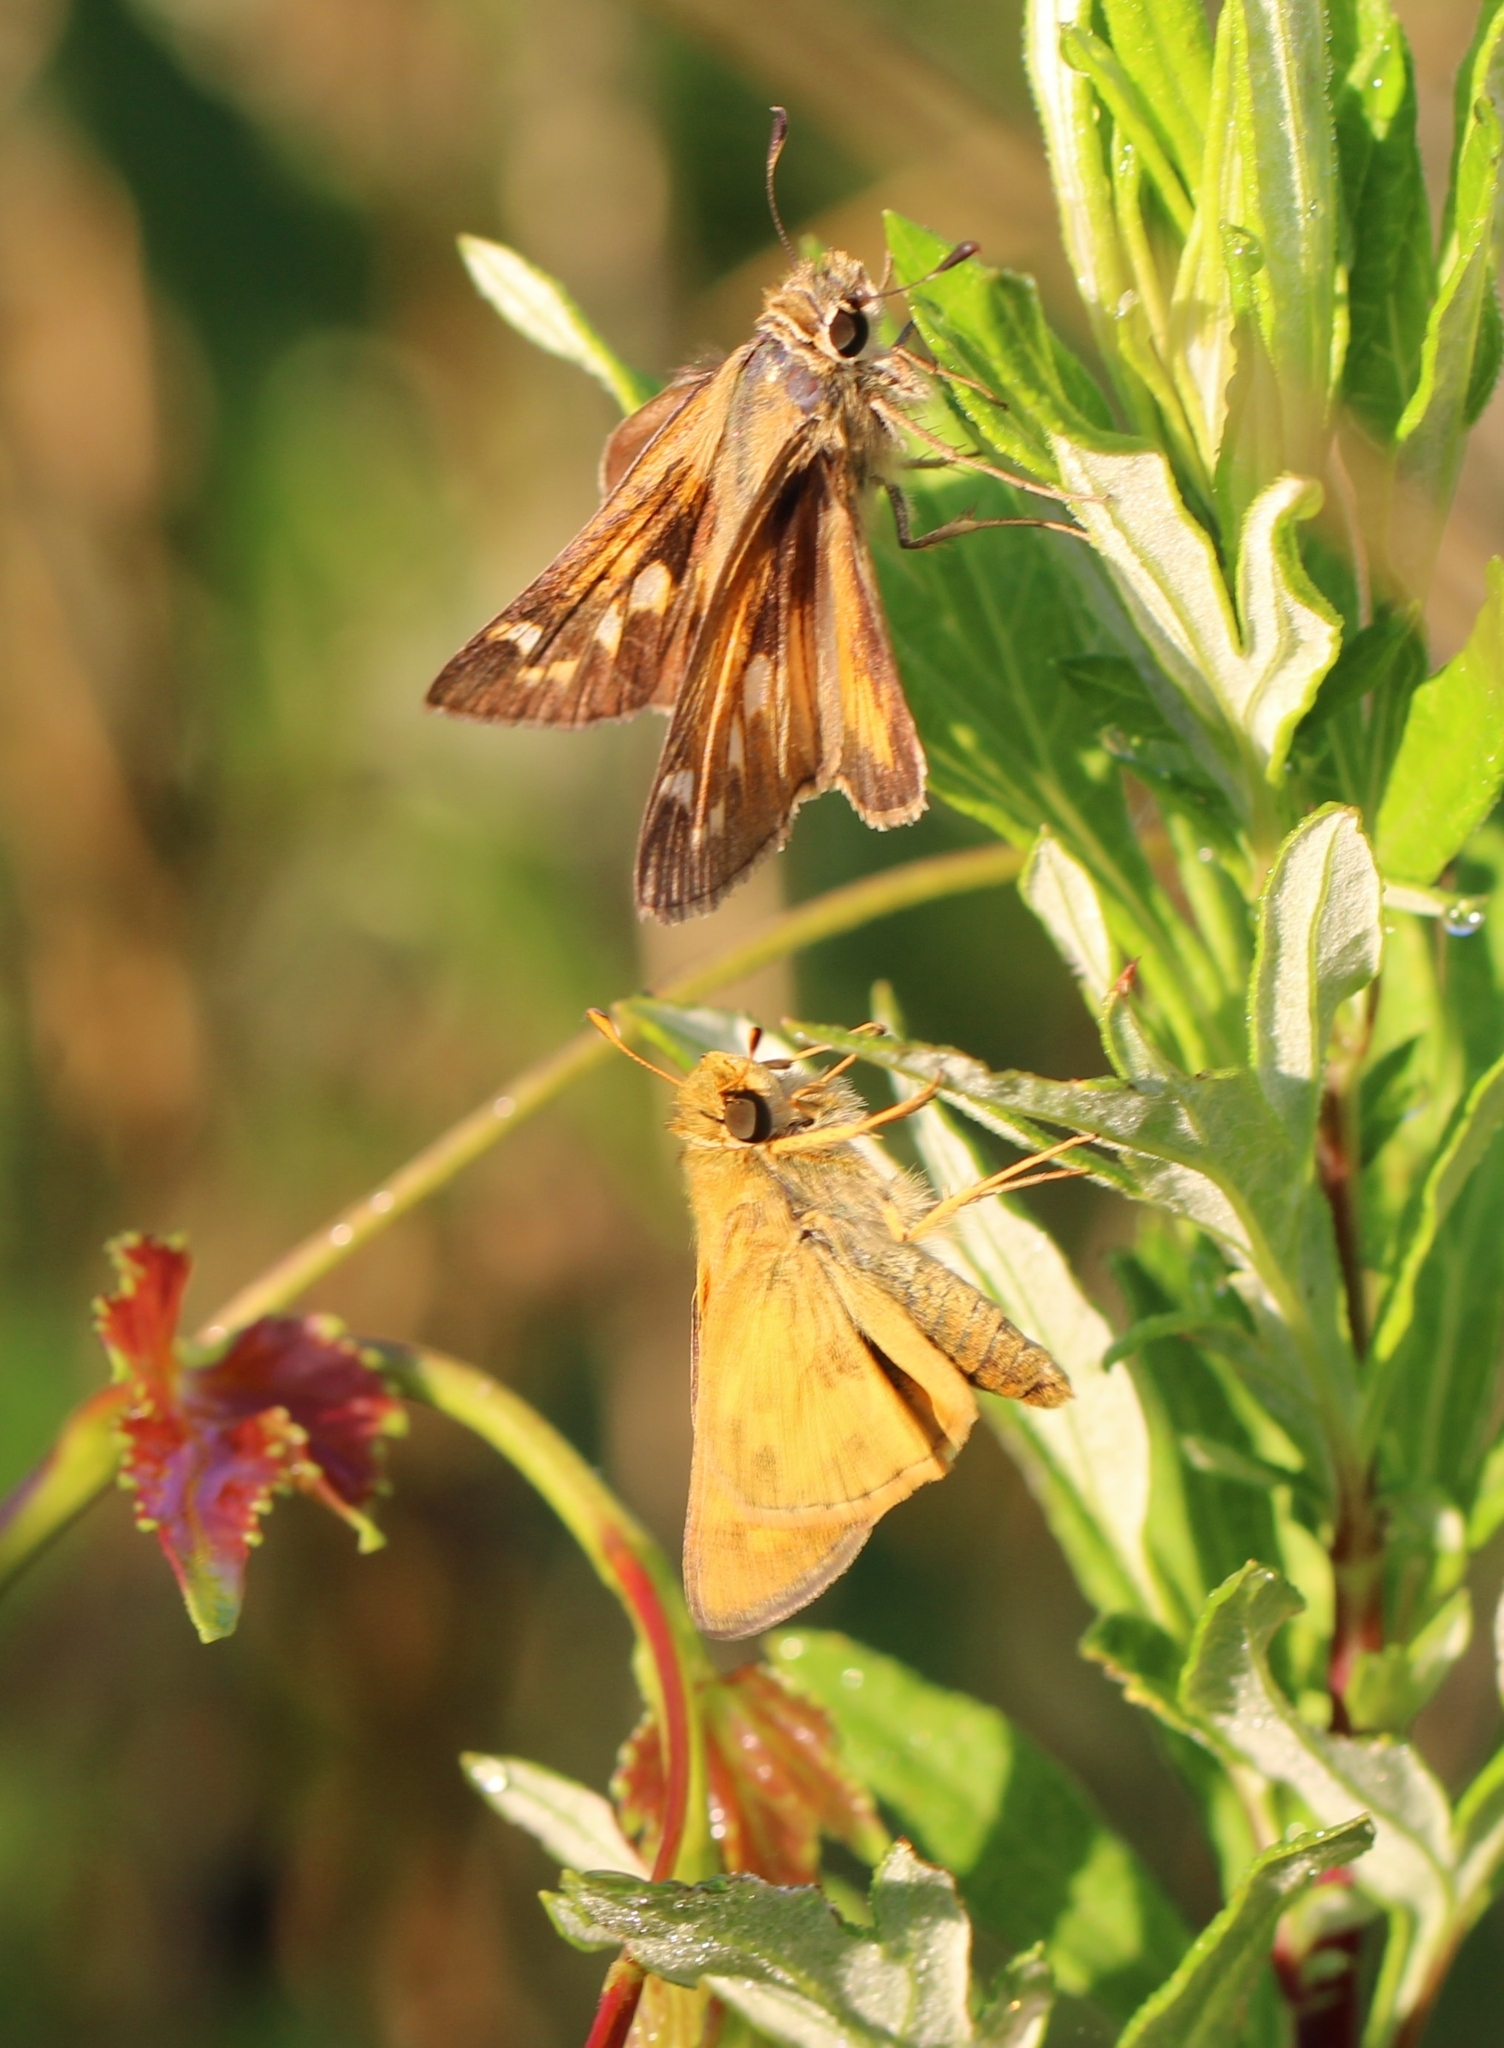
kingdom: Animalia
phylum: Arthropoda
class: Insecta
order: Lepidoptera
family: Hesperiidae
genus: Atalopedes
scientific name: Atalopedes
